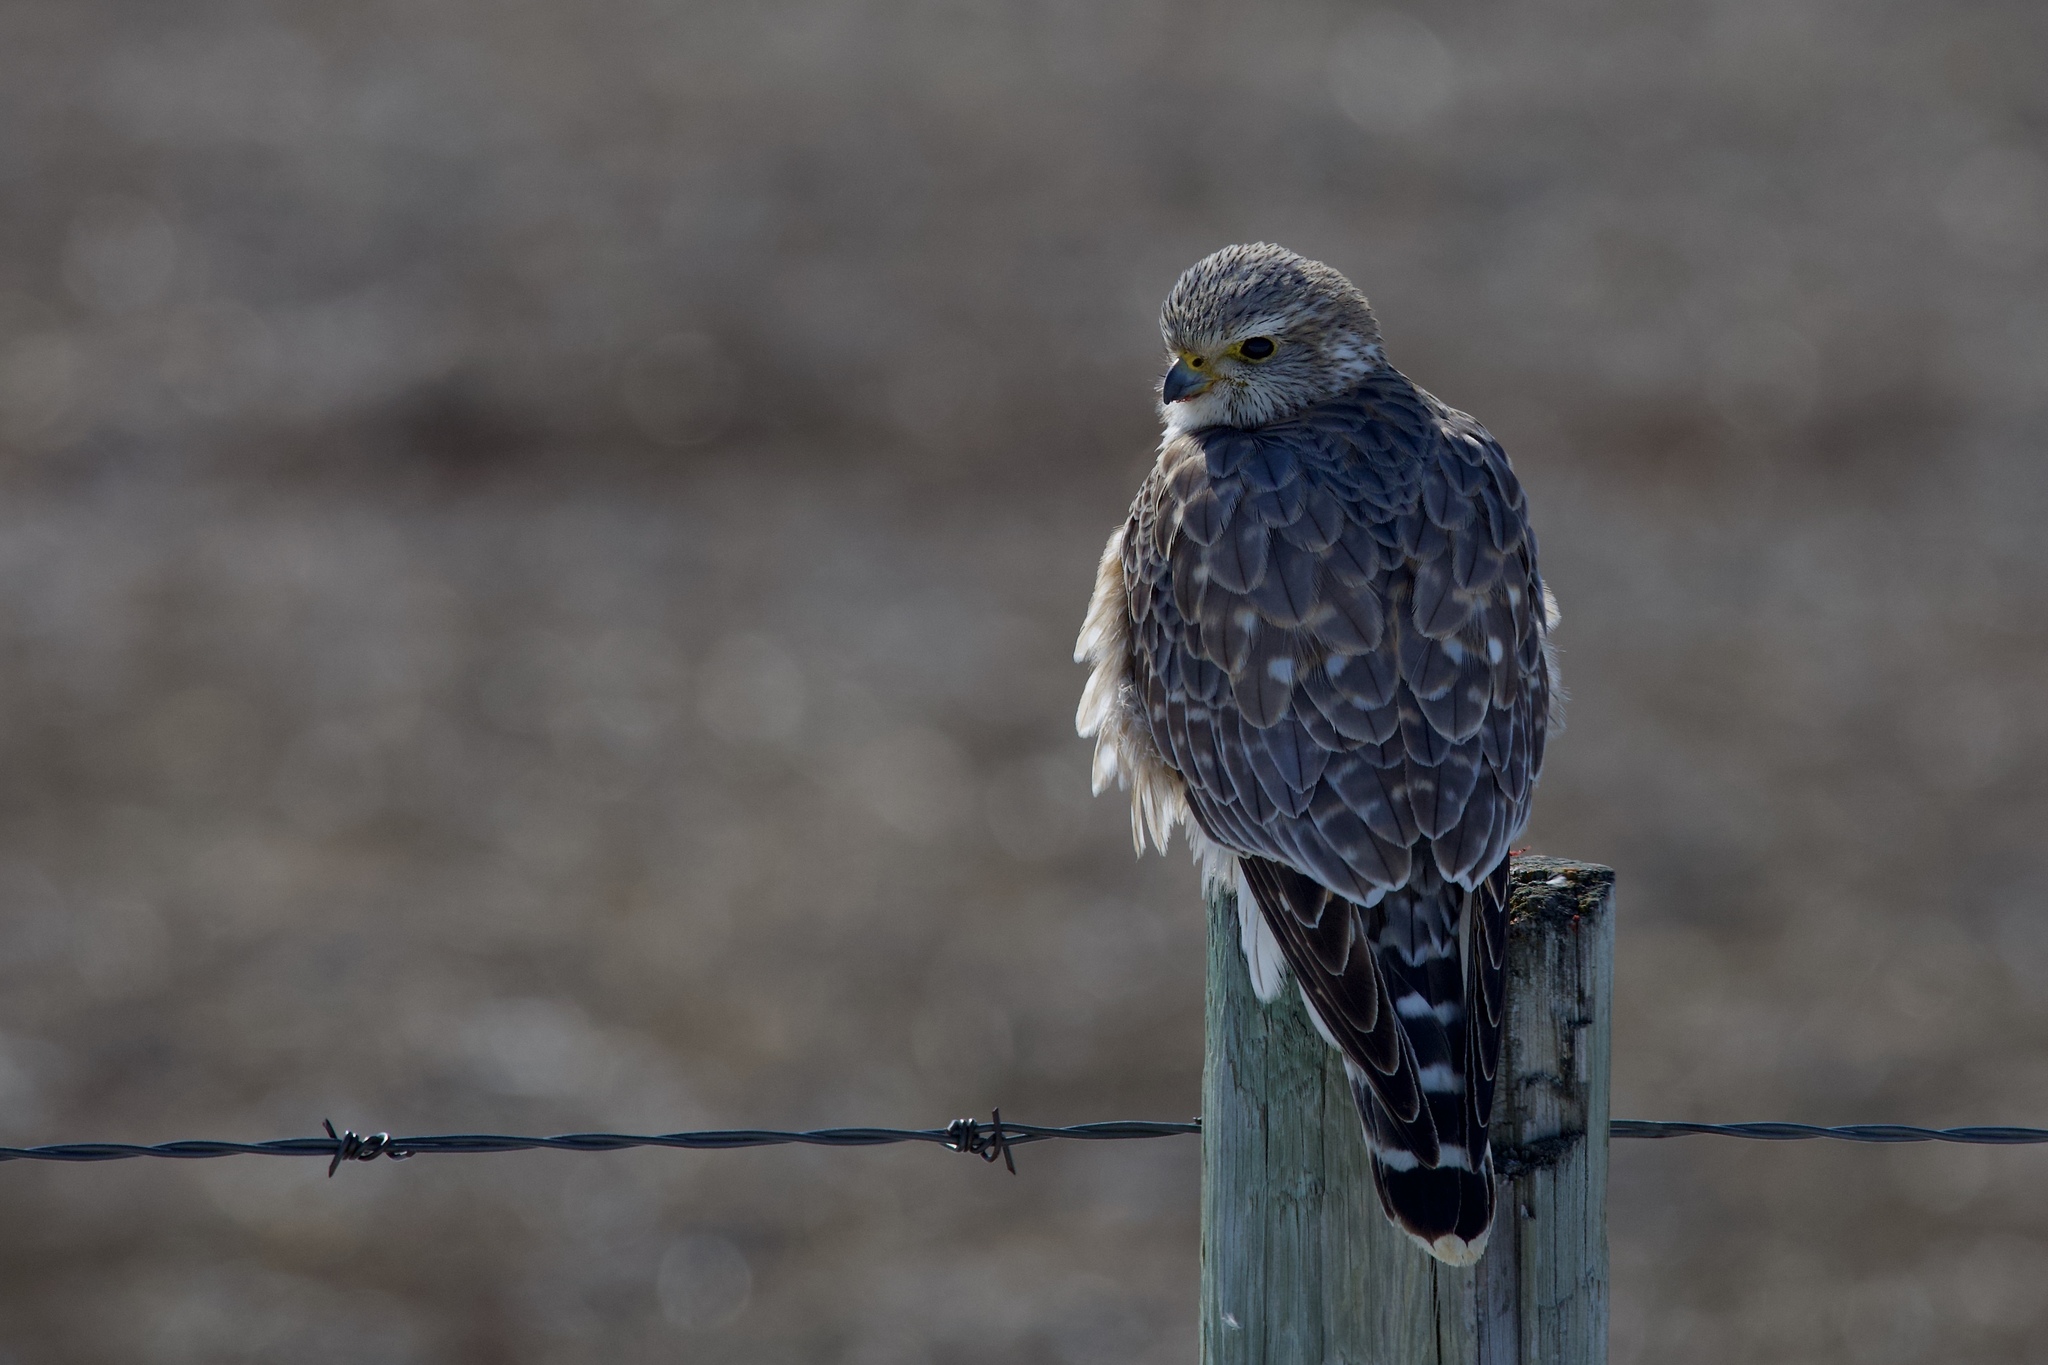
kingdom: Animalia
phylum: Chordata
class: Aves
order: Falconiformes
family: Falconidae
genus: Falco
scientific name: Falco columbarius
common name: Merlin
